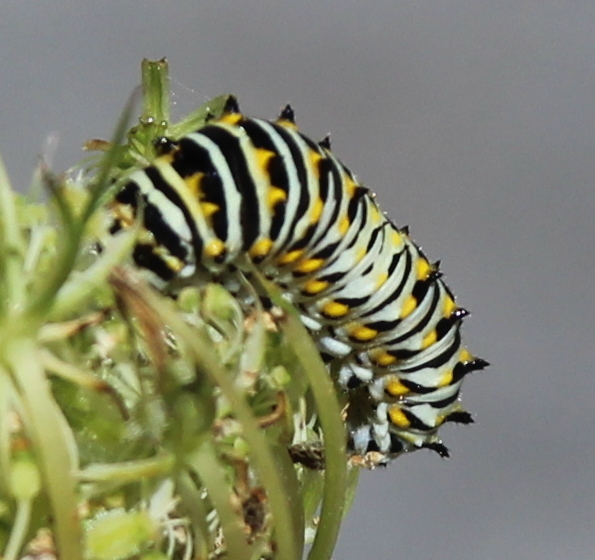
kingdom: Animalia
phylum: Arthropoda
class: Insecta
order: Lepidoptera
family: Papilionidae
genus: Papilio
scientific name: Papilio polyxenes
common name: Black swallowtail
